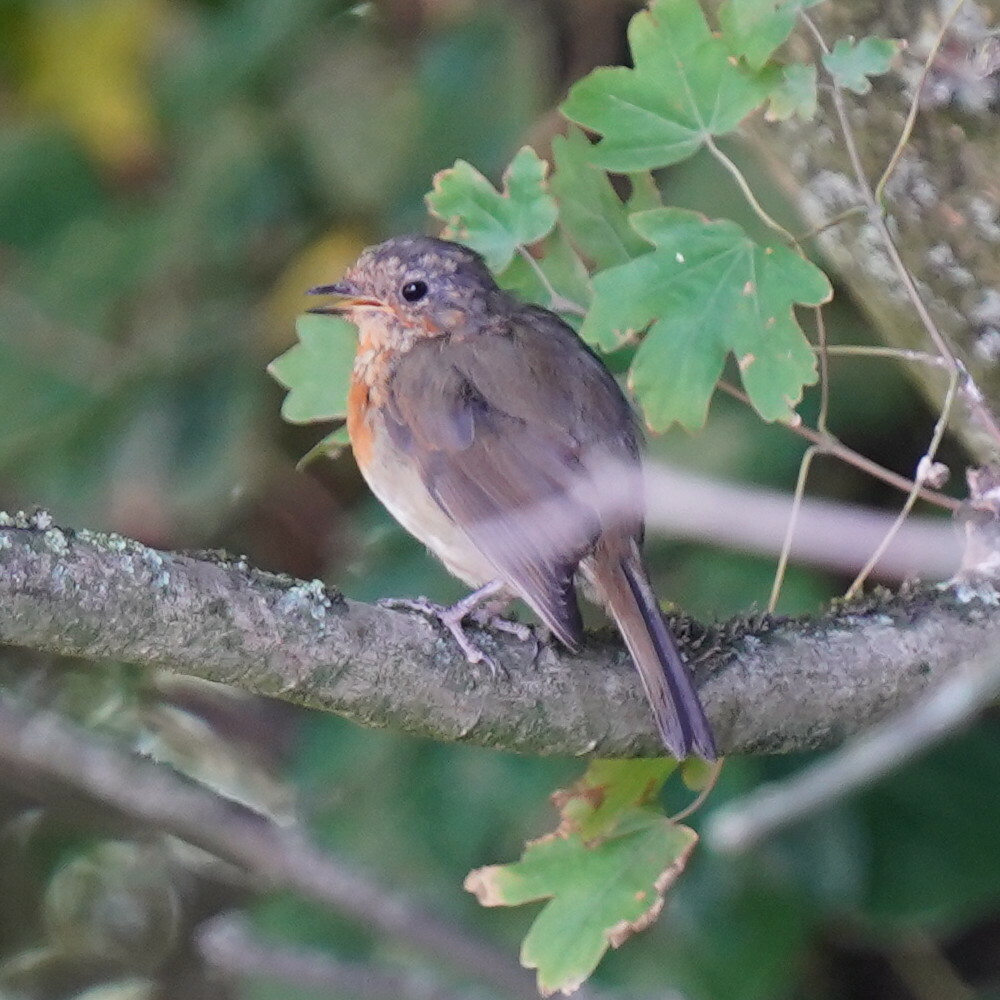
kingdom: Animalia
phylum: Chordata
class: Aves
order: Passeriformes
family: Muscicapidae
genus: Erithacus
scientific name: Erithacus rubecula
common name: European robin
